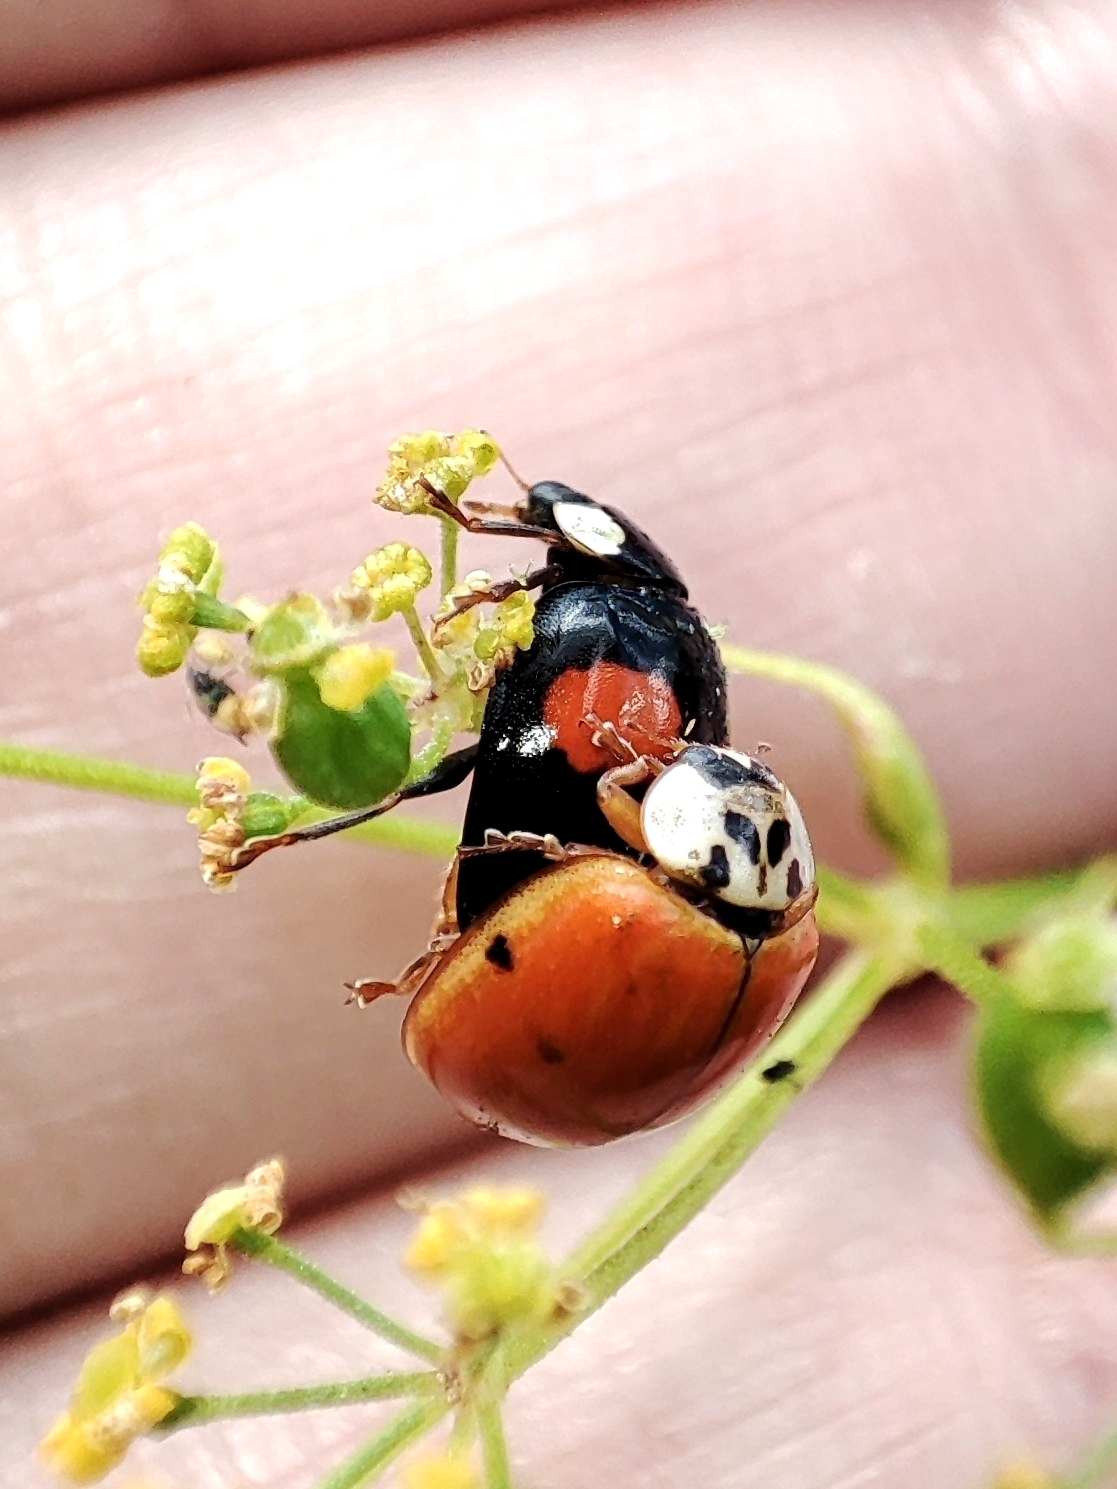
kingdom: Animalia
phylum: Arthropoda
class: Insecta
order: Coleoptera
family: Coccinellidae
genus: Harmonia
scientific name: Harmonia axyridis
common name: Harlequin ladybird
